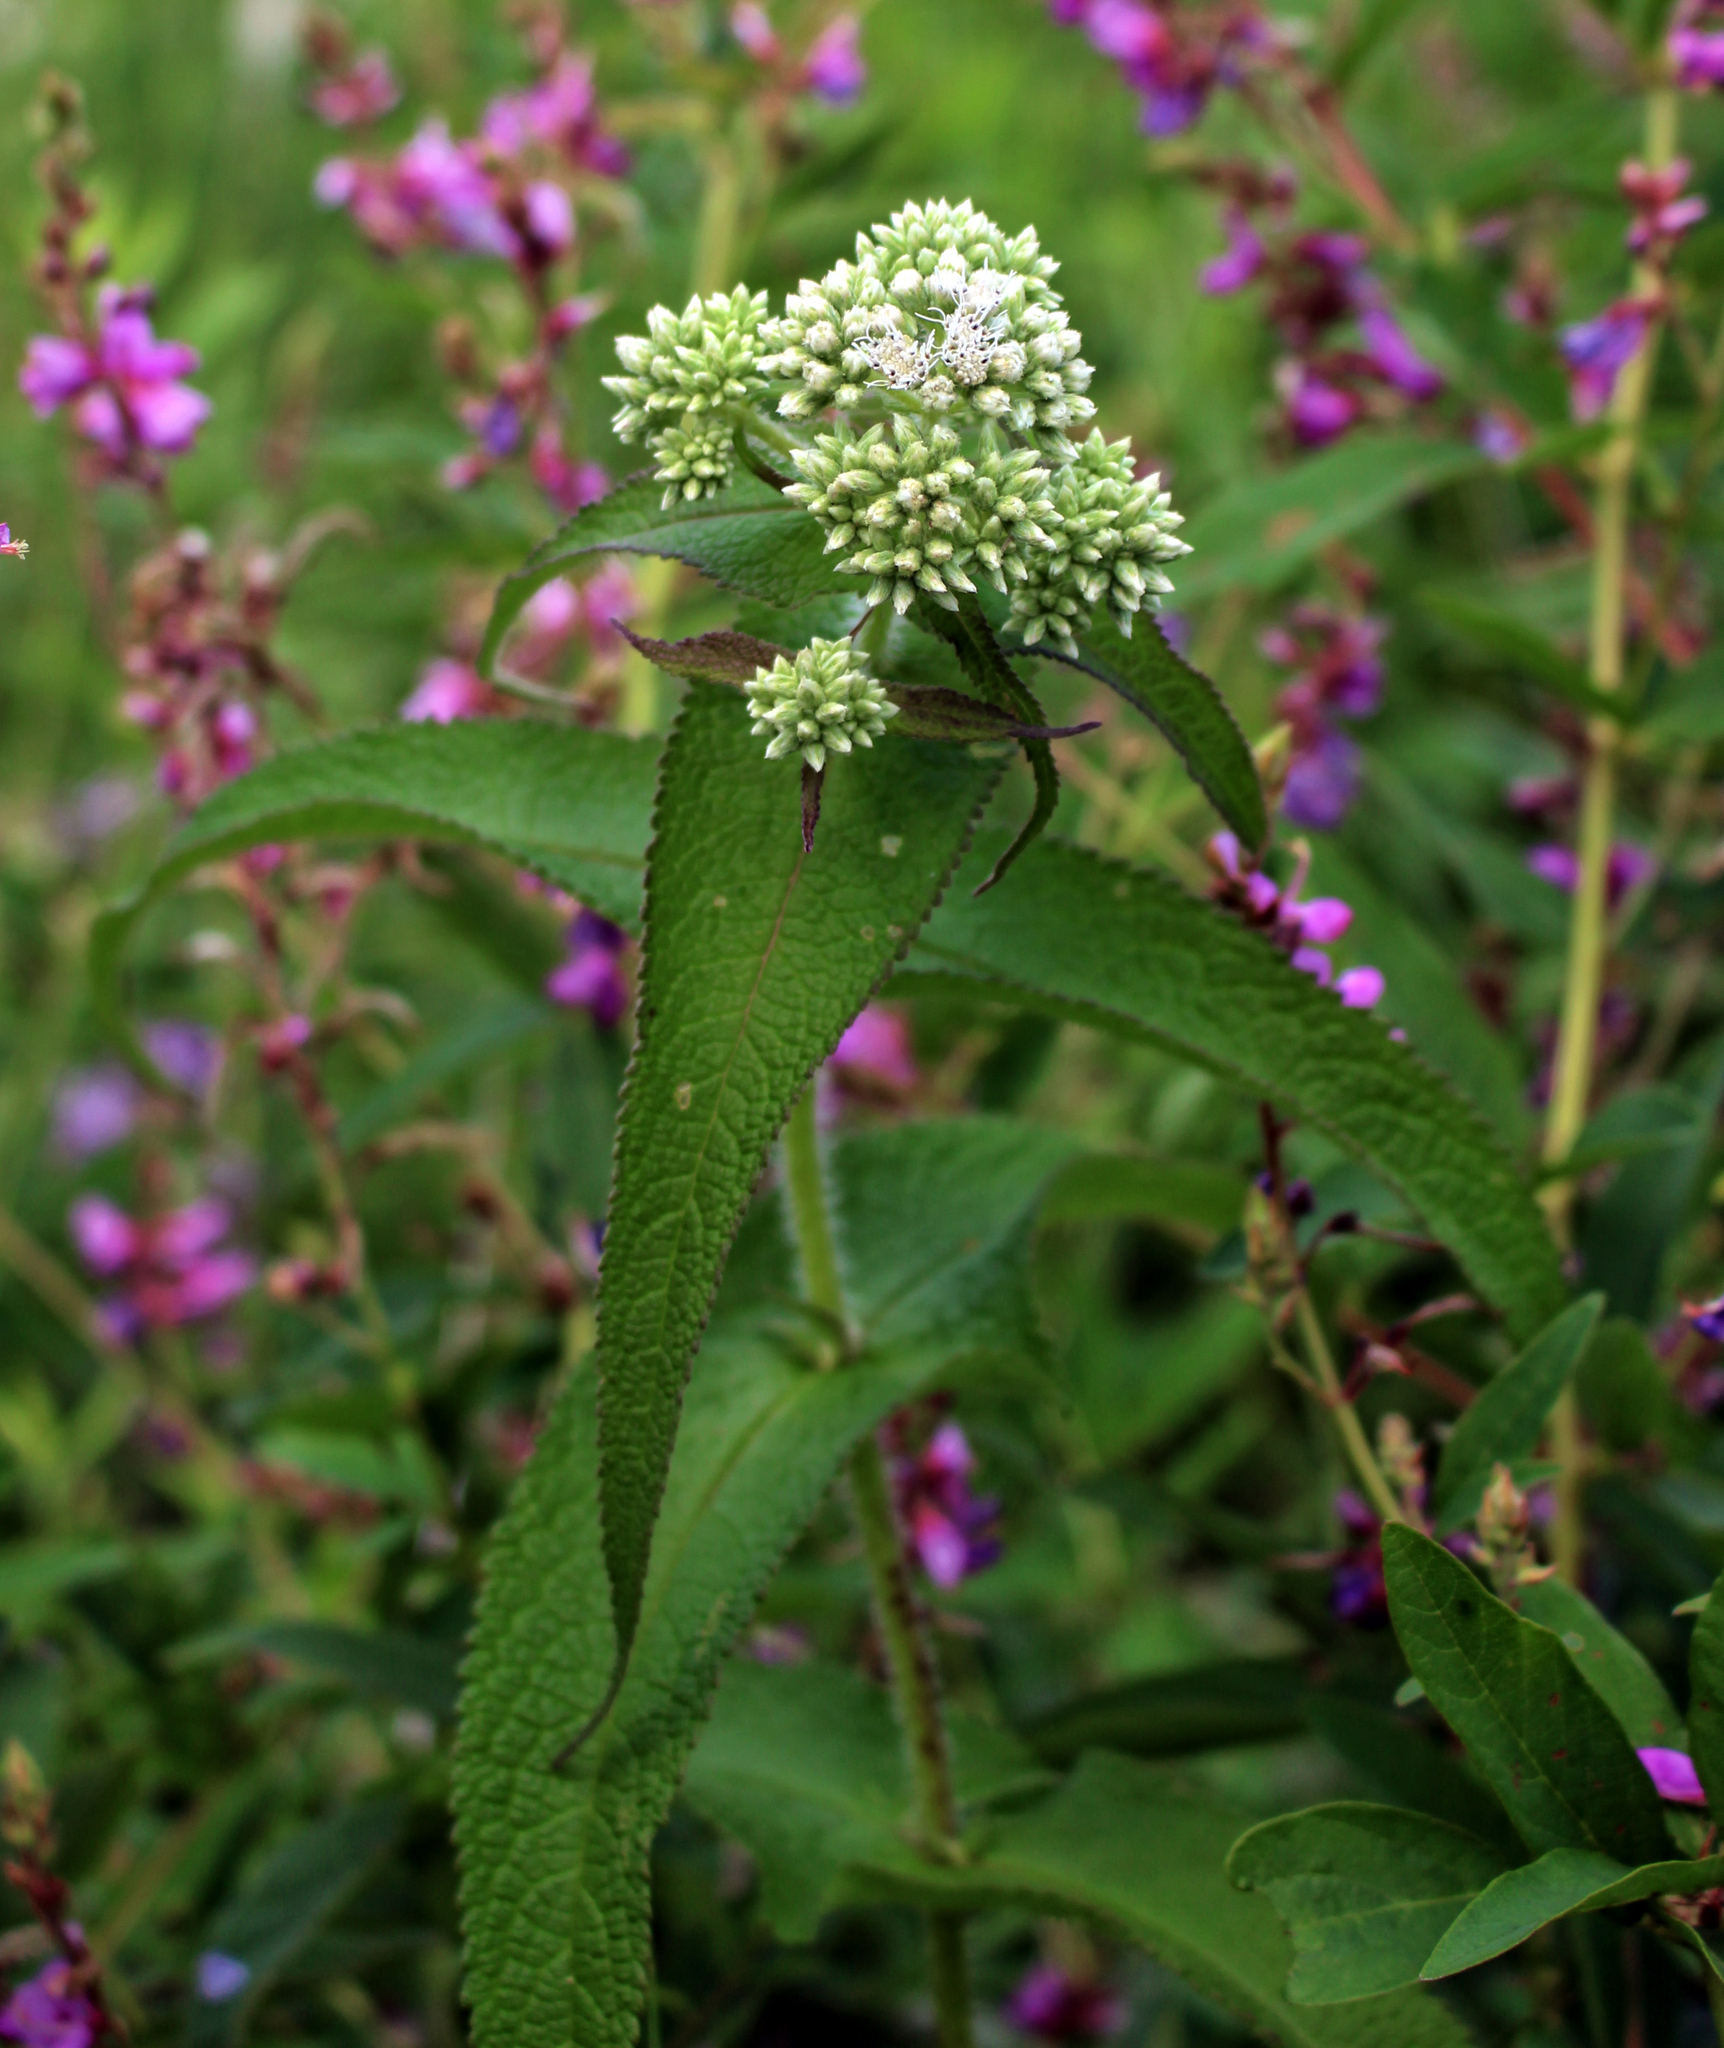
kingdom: Plantae
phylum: Tracheophyta
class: Magnoliopsida
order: Asterales
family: Asteraceae
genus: Eupatorium
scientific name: Eupatorium perfoliatum
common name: Boneset
